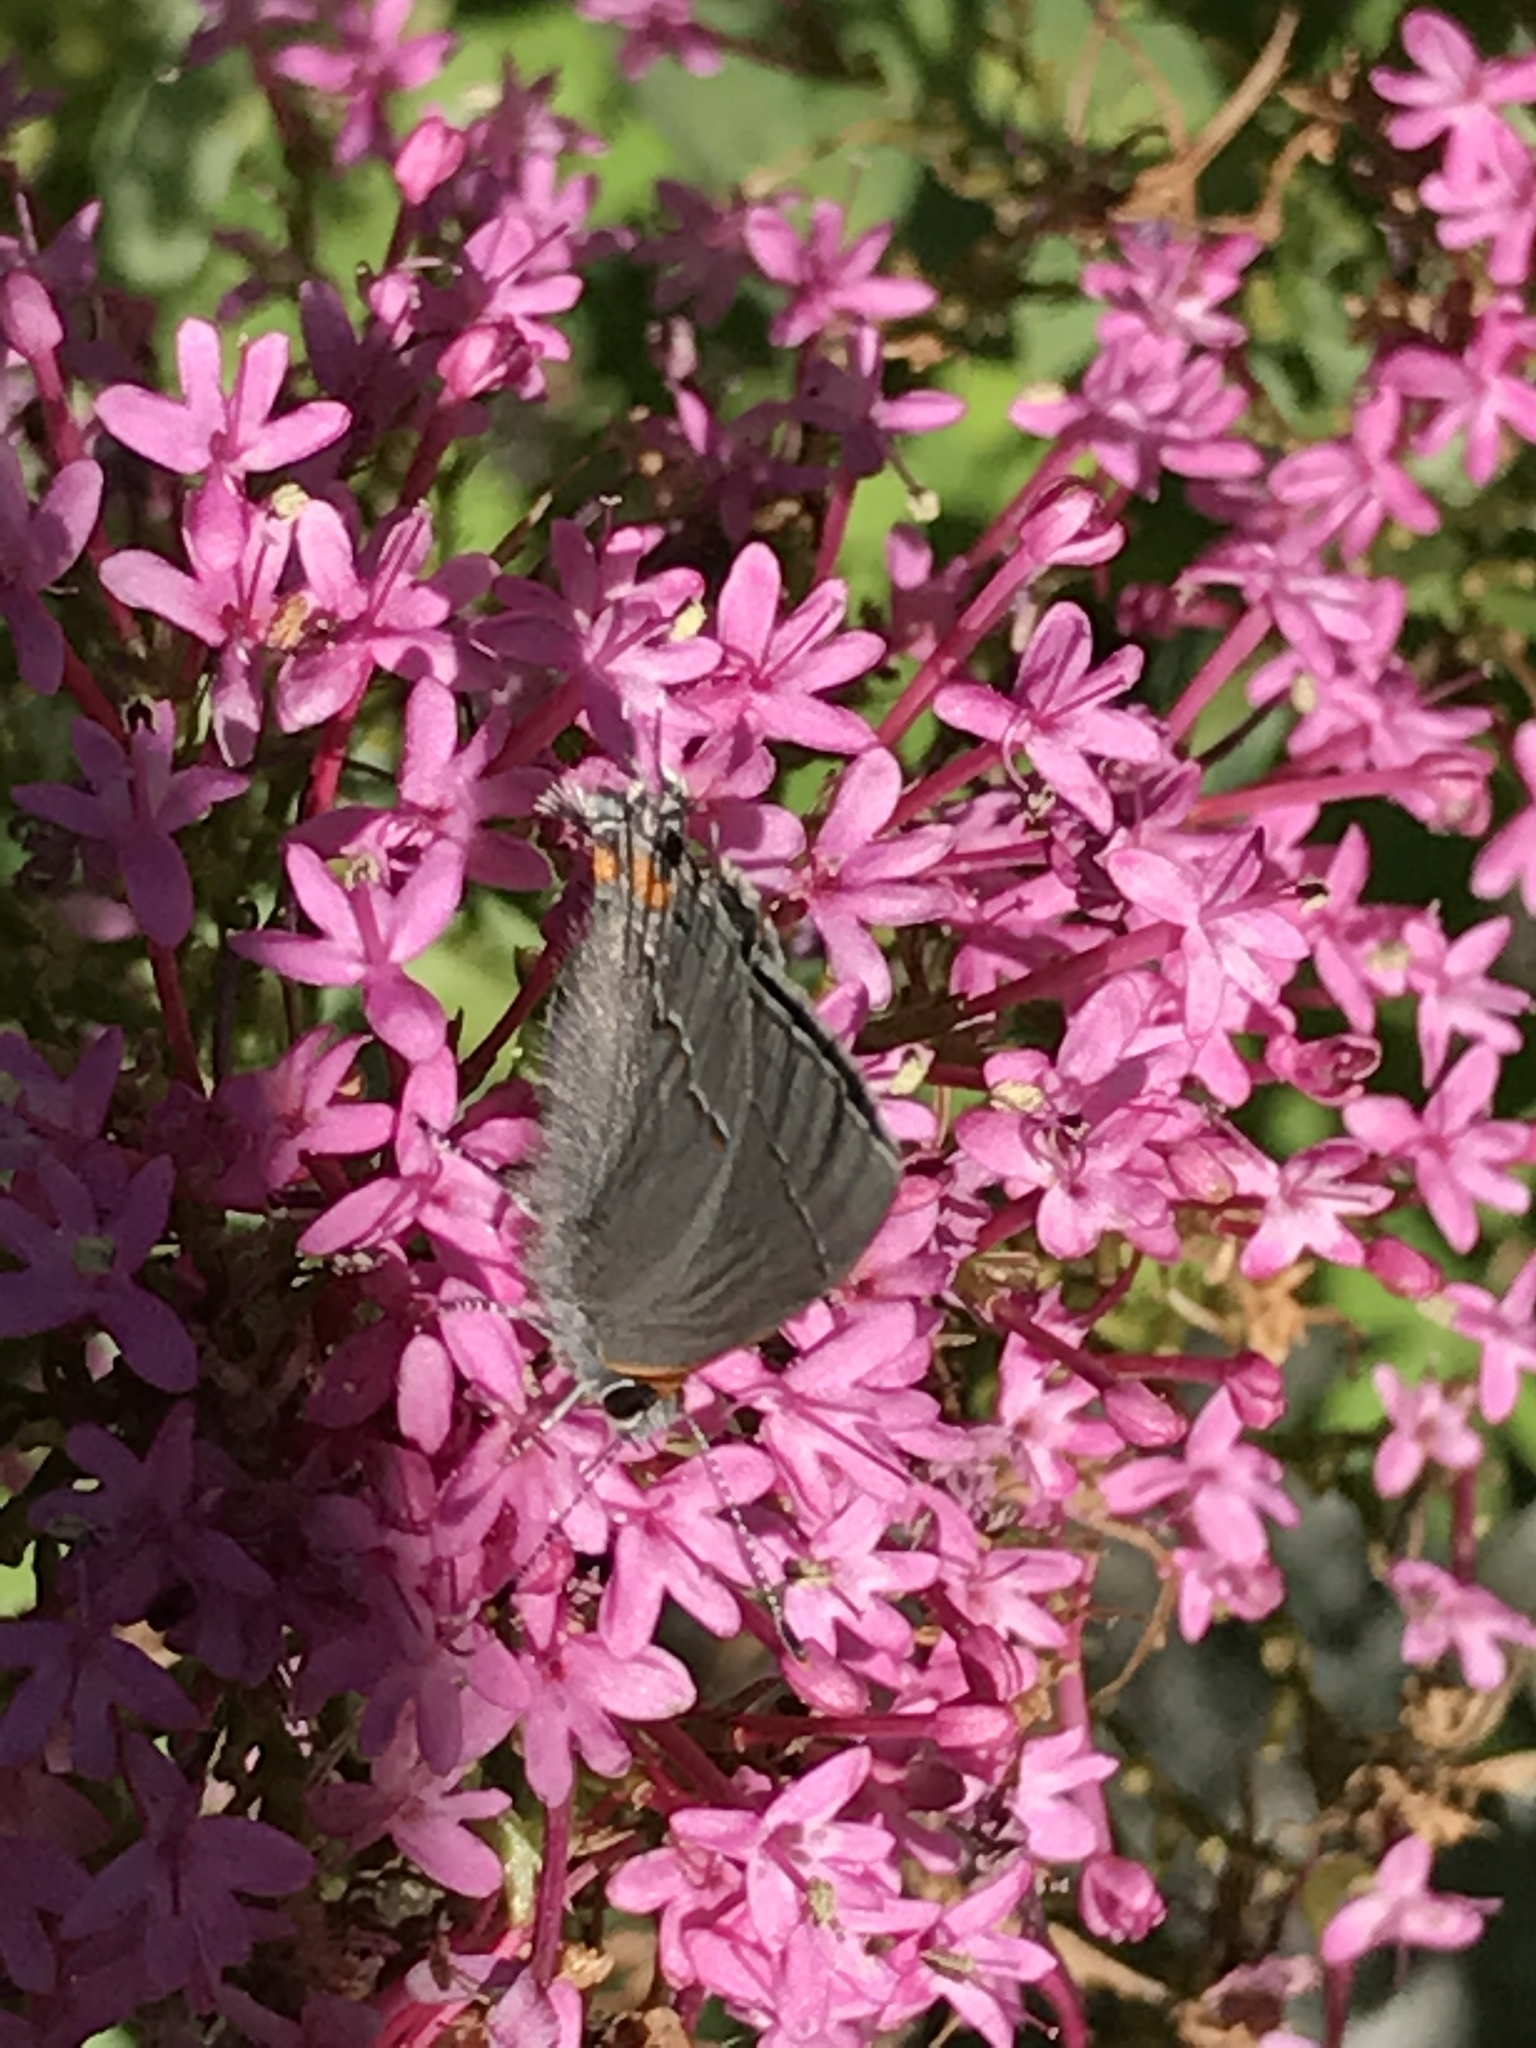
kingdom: Animalia
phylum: Arthropoda
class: Insecta
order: Lepidoptera
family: Lycaenidae
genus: Strymon
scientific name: Strymon melinus
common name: Gray hairstreak
